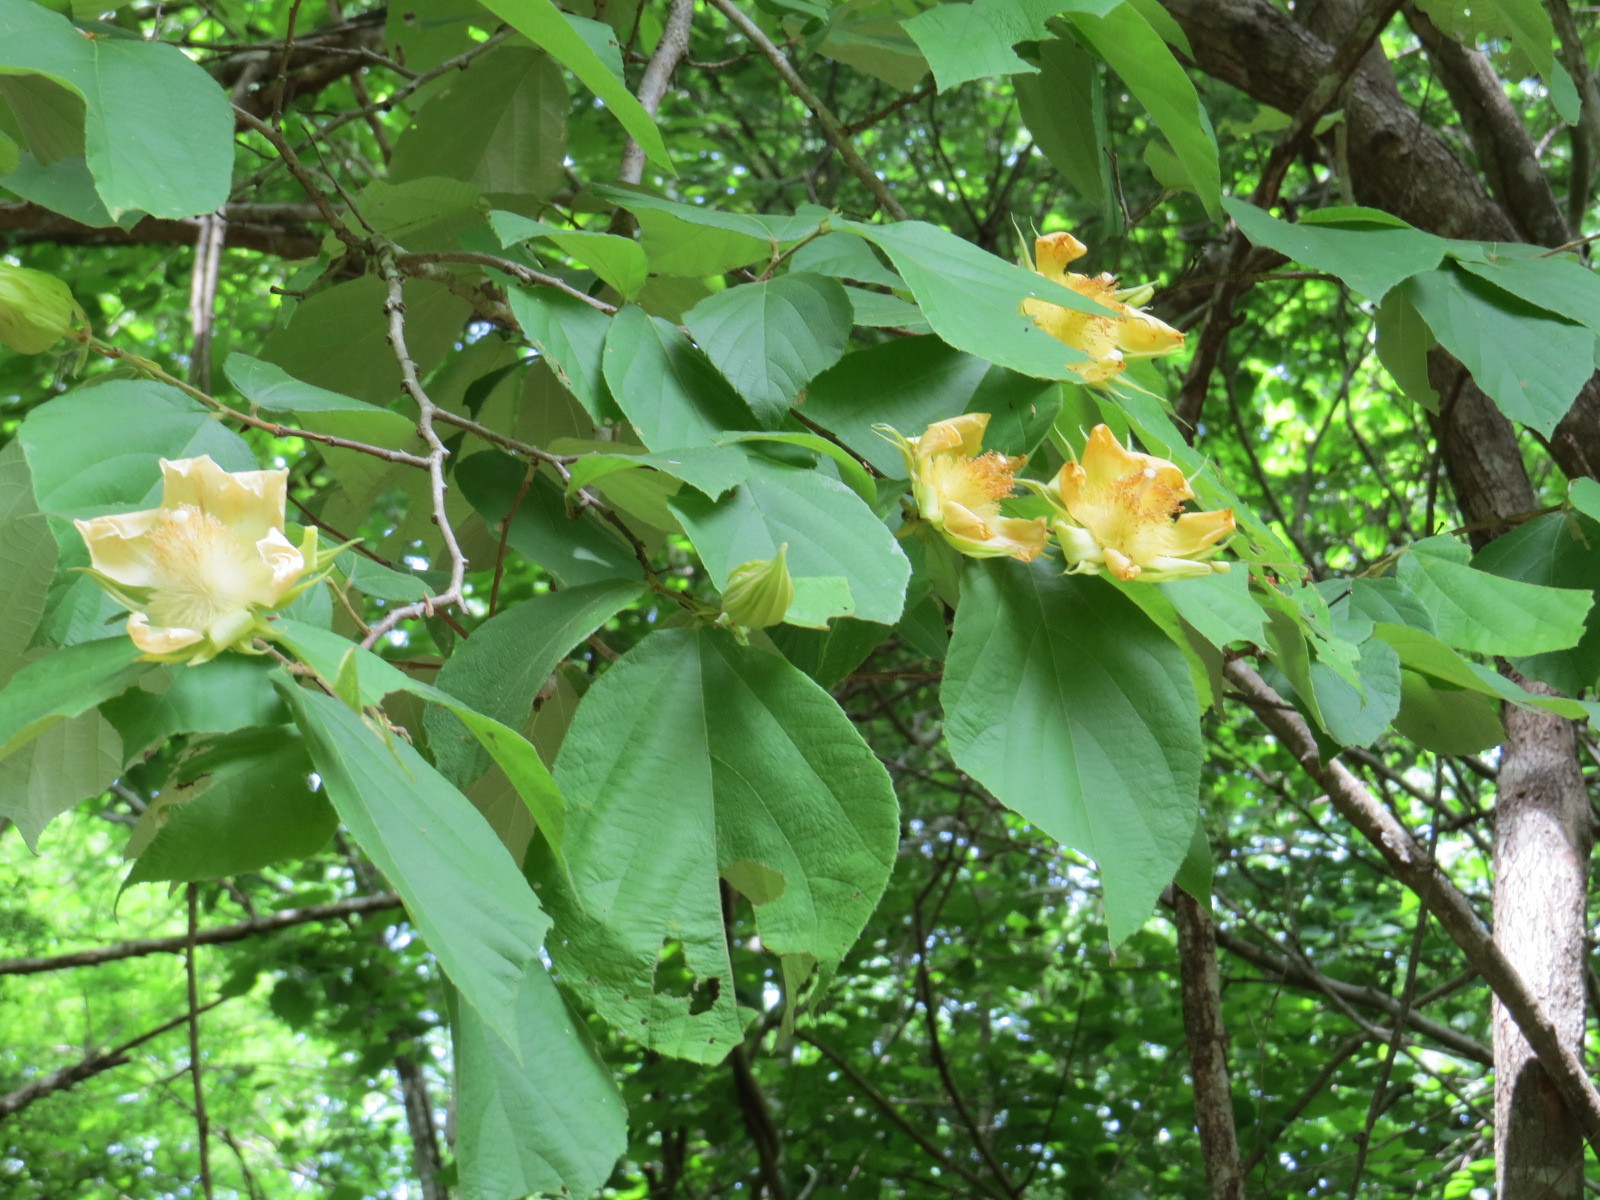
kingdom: Plantae
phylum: Tracheophyta
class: Magnoliopsida
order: Malvales
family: Malvaceae
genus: Luehea
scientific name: Luehea speciosa
